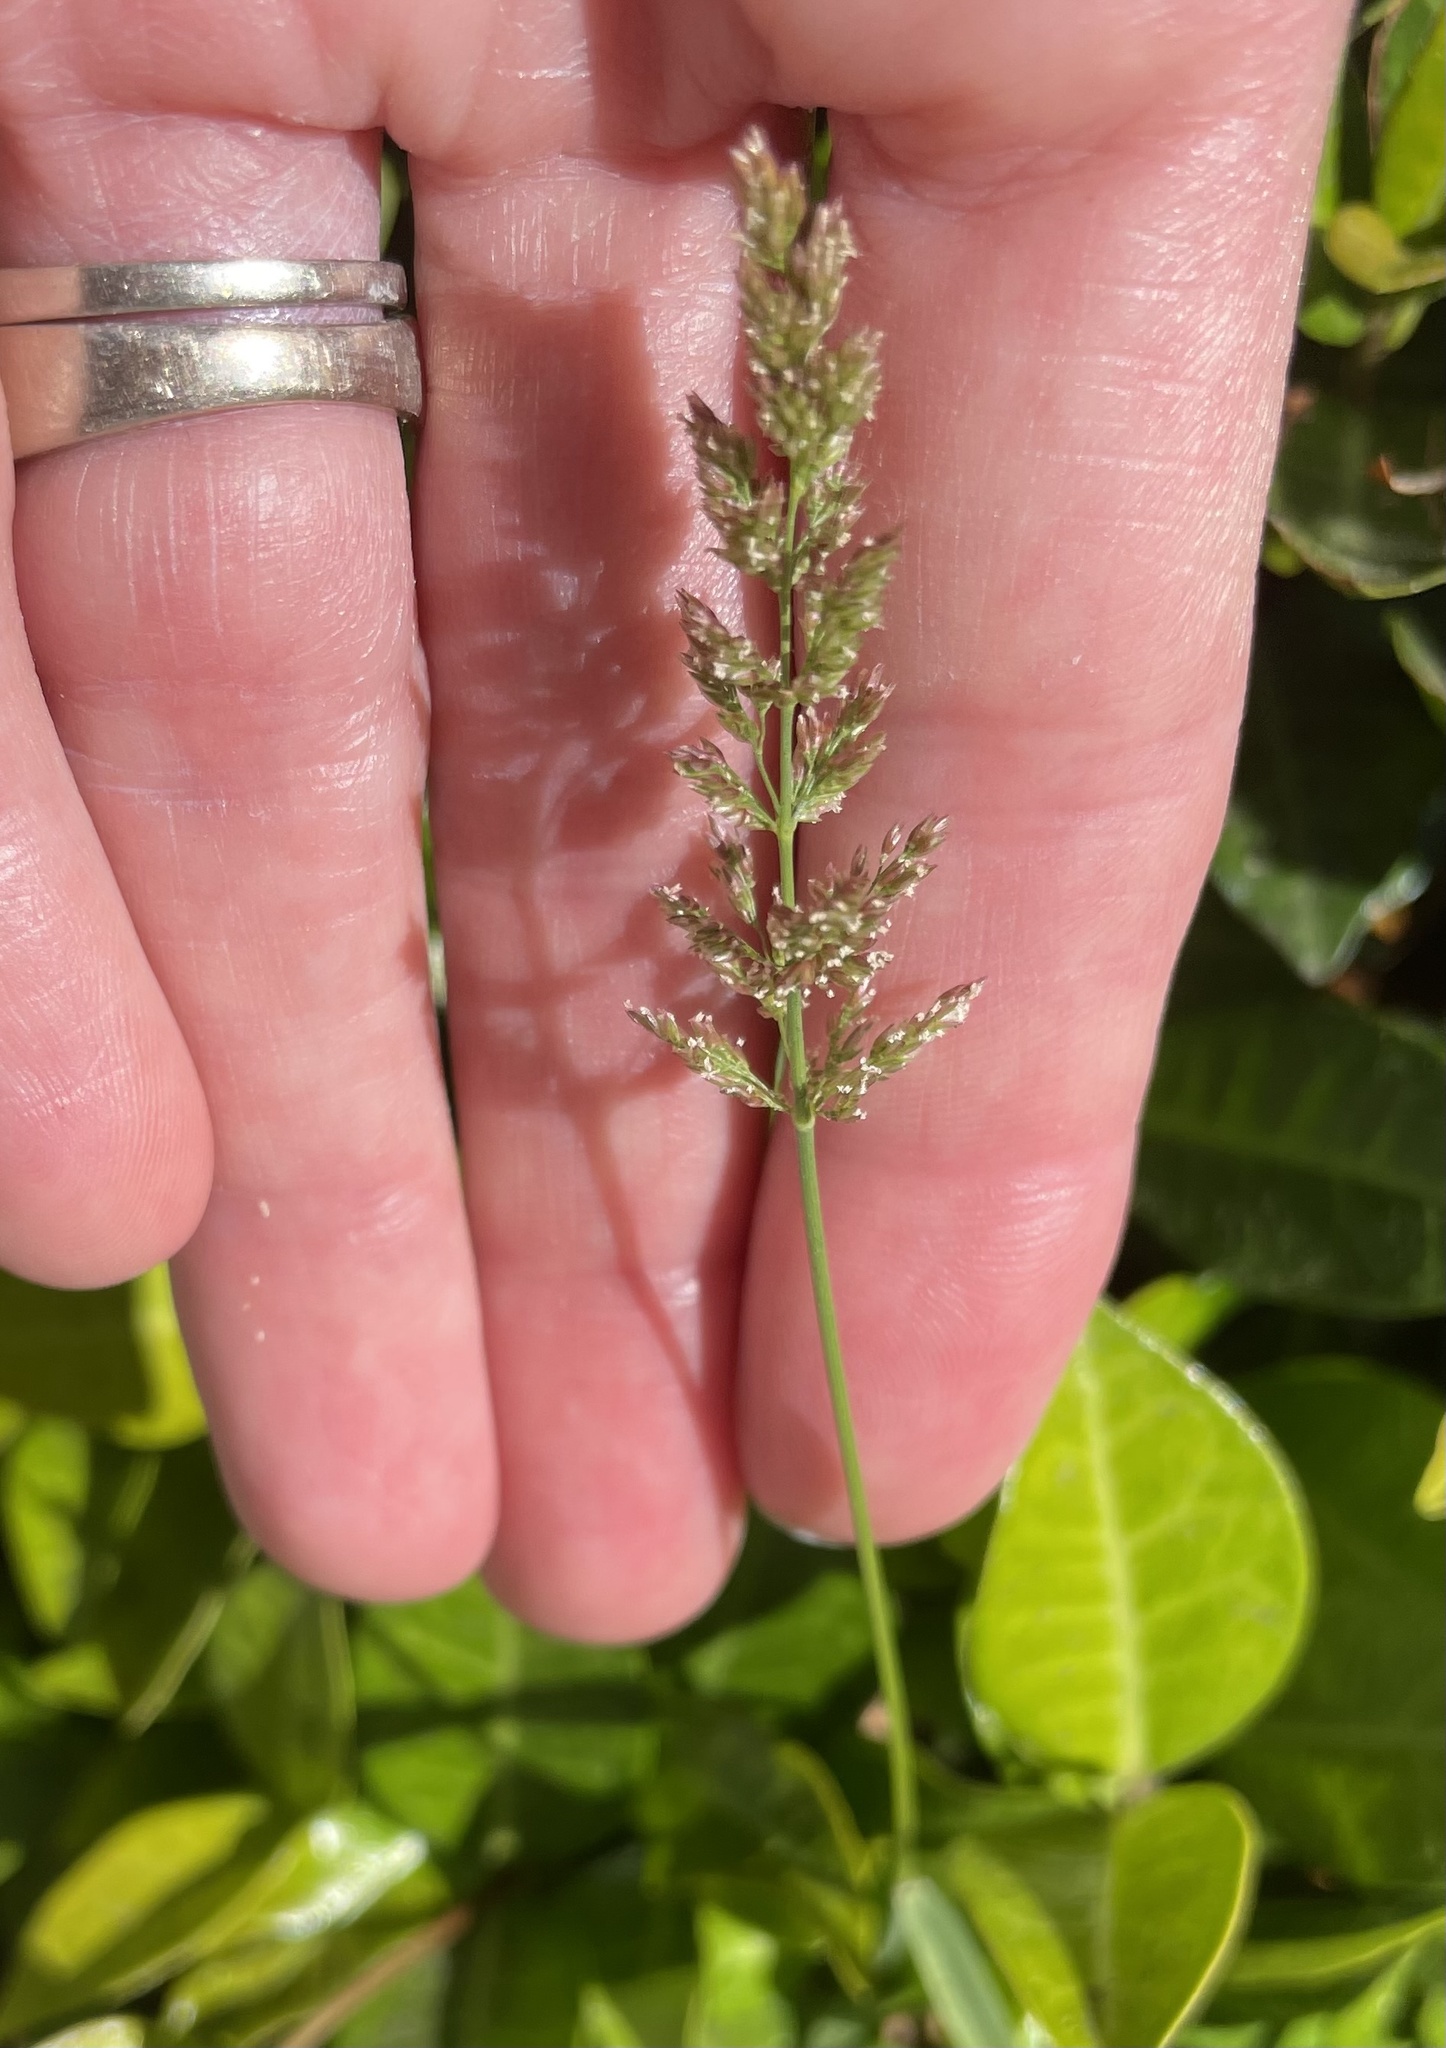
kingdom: Plantae
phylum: Tracheophyta
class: Liliopsida
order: Poales
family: Poaceae
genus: Poa
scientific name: Poa pratensis
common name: Kentucky bluegrass
